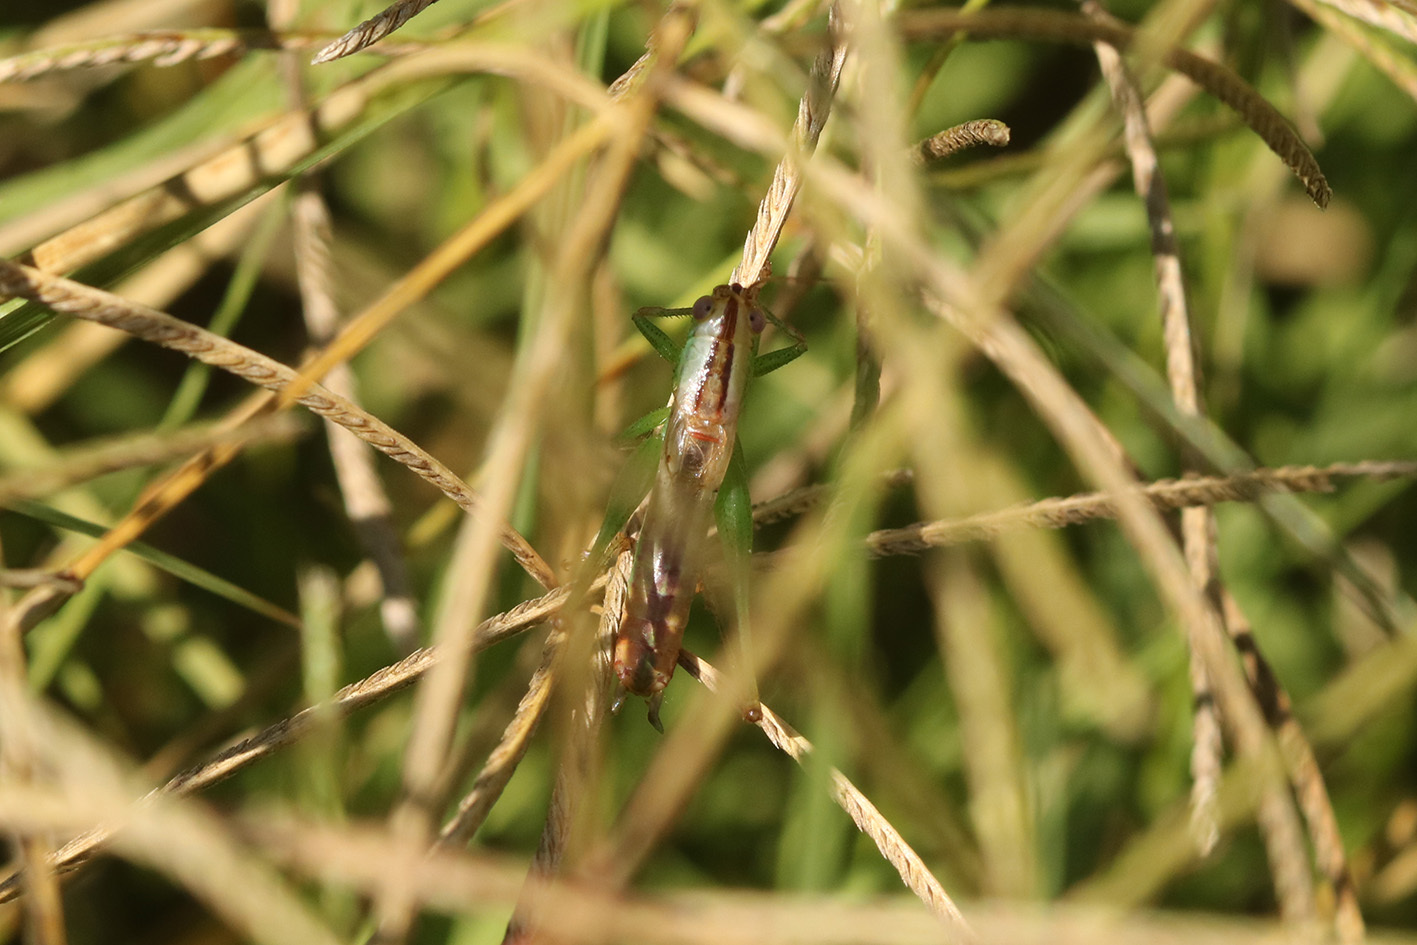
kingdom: Animalia
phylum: Arthropoda
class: Insecta
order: Orthoptera
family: Tettigoniidae
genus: Conocephalus
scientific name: Conocephalus doryphorus
